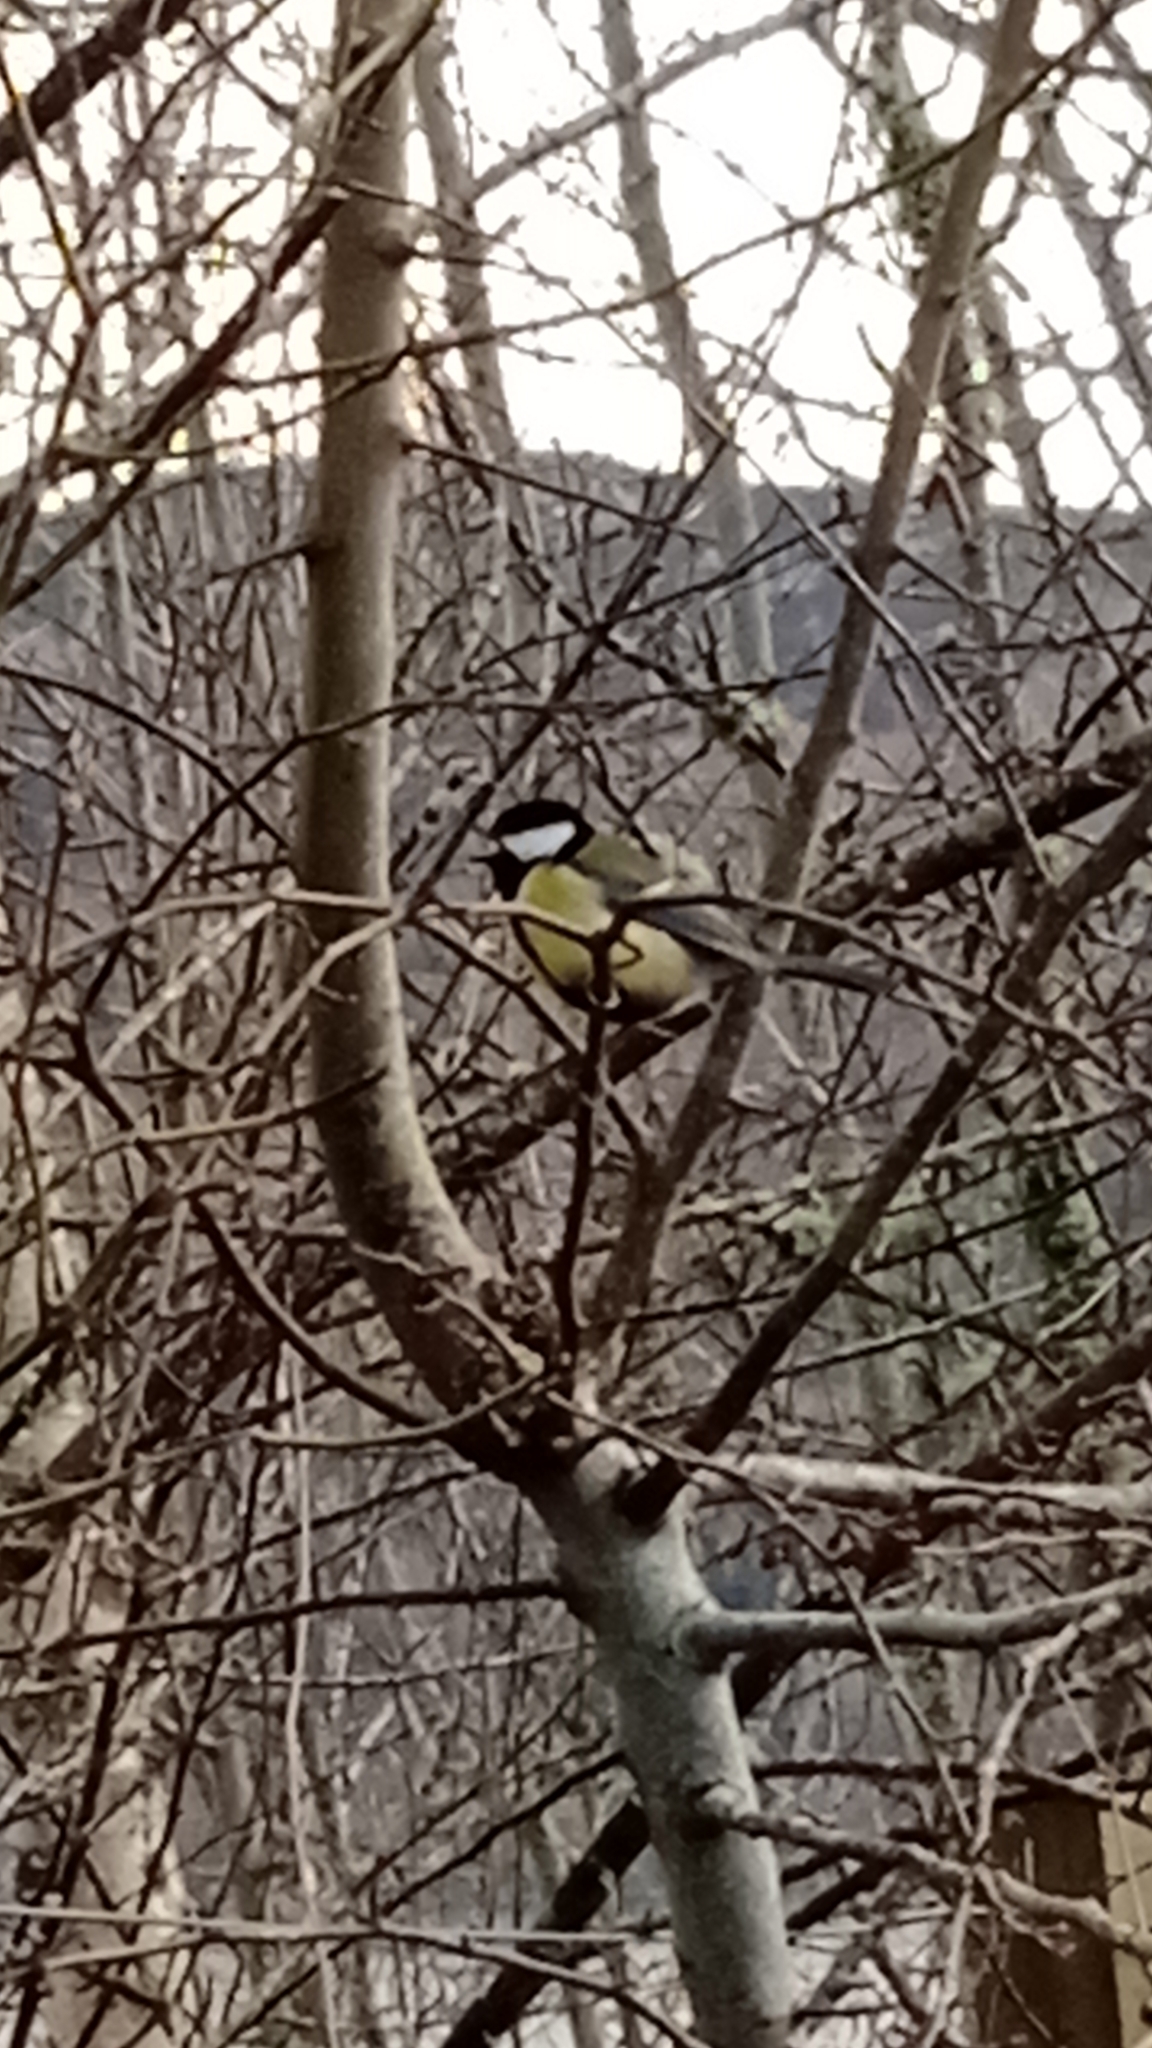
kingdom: Animalia
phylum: Chordata
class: Aves
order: Passeriformes
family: Paridae
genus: Parus
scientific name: Parus major
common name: Great tit
